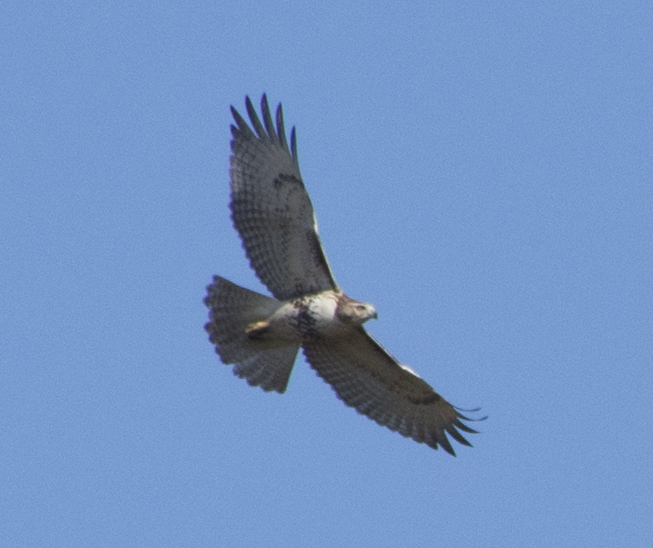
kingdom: Animalia
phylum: Chordata
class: Aves
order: Accipitriformes
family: Accipitridae
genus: Buteo
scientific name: Buteo jamaicensis
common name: Red-tailed hawk
